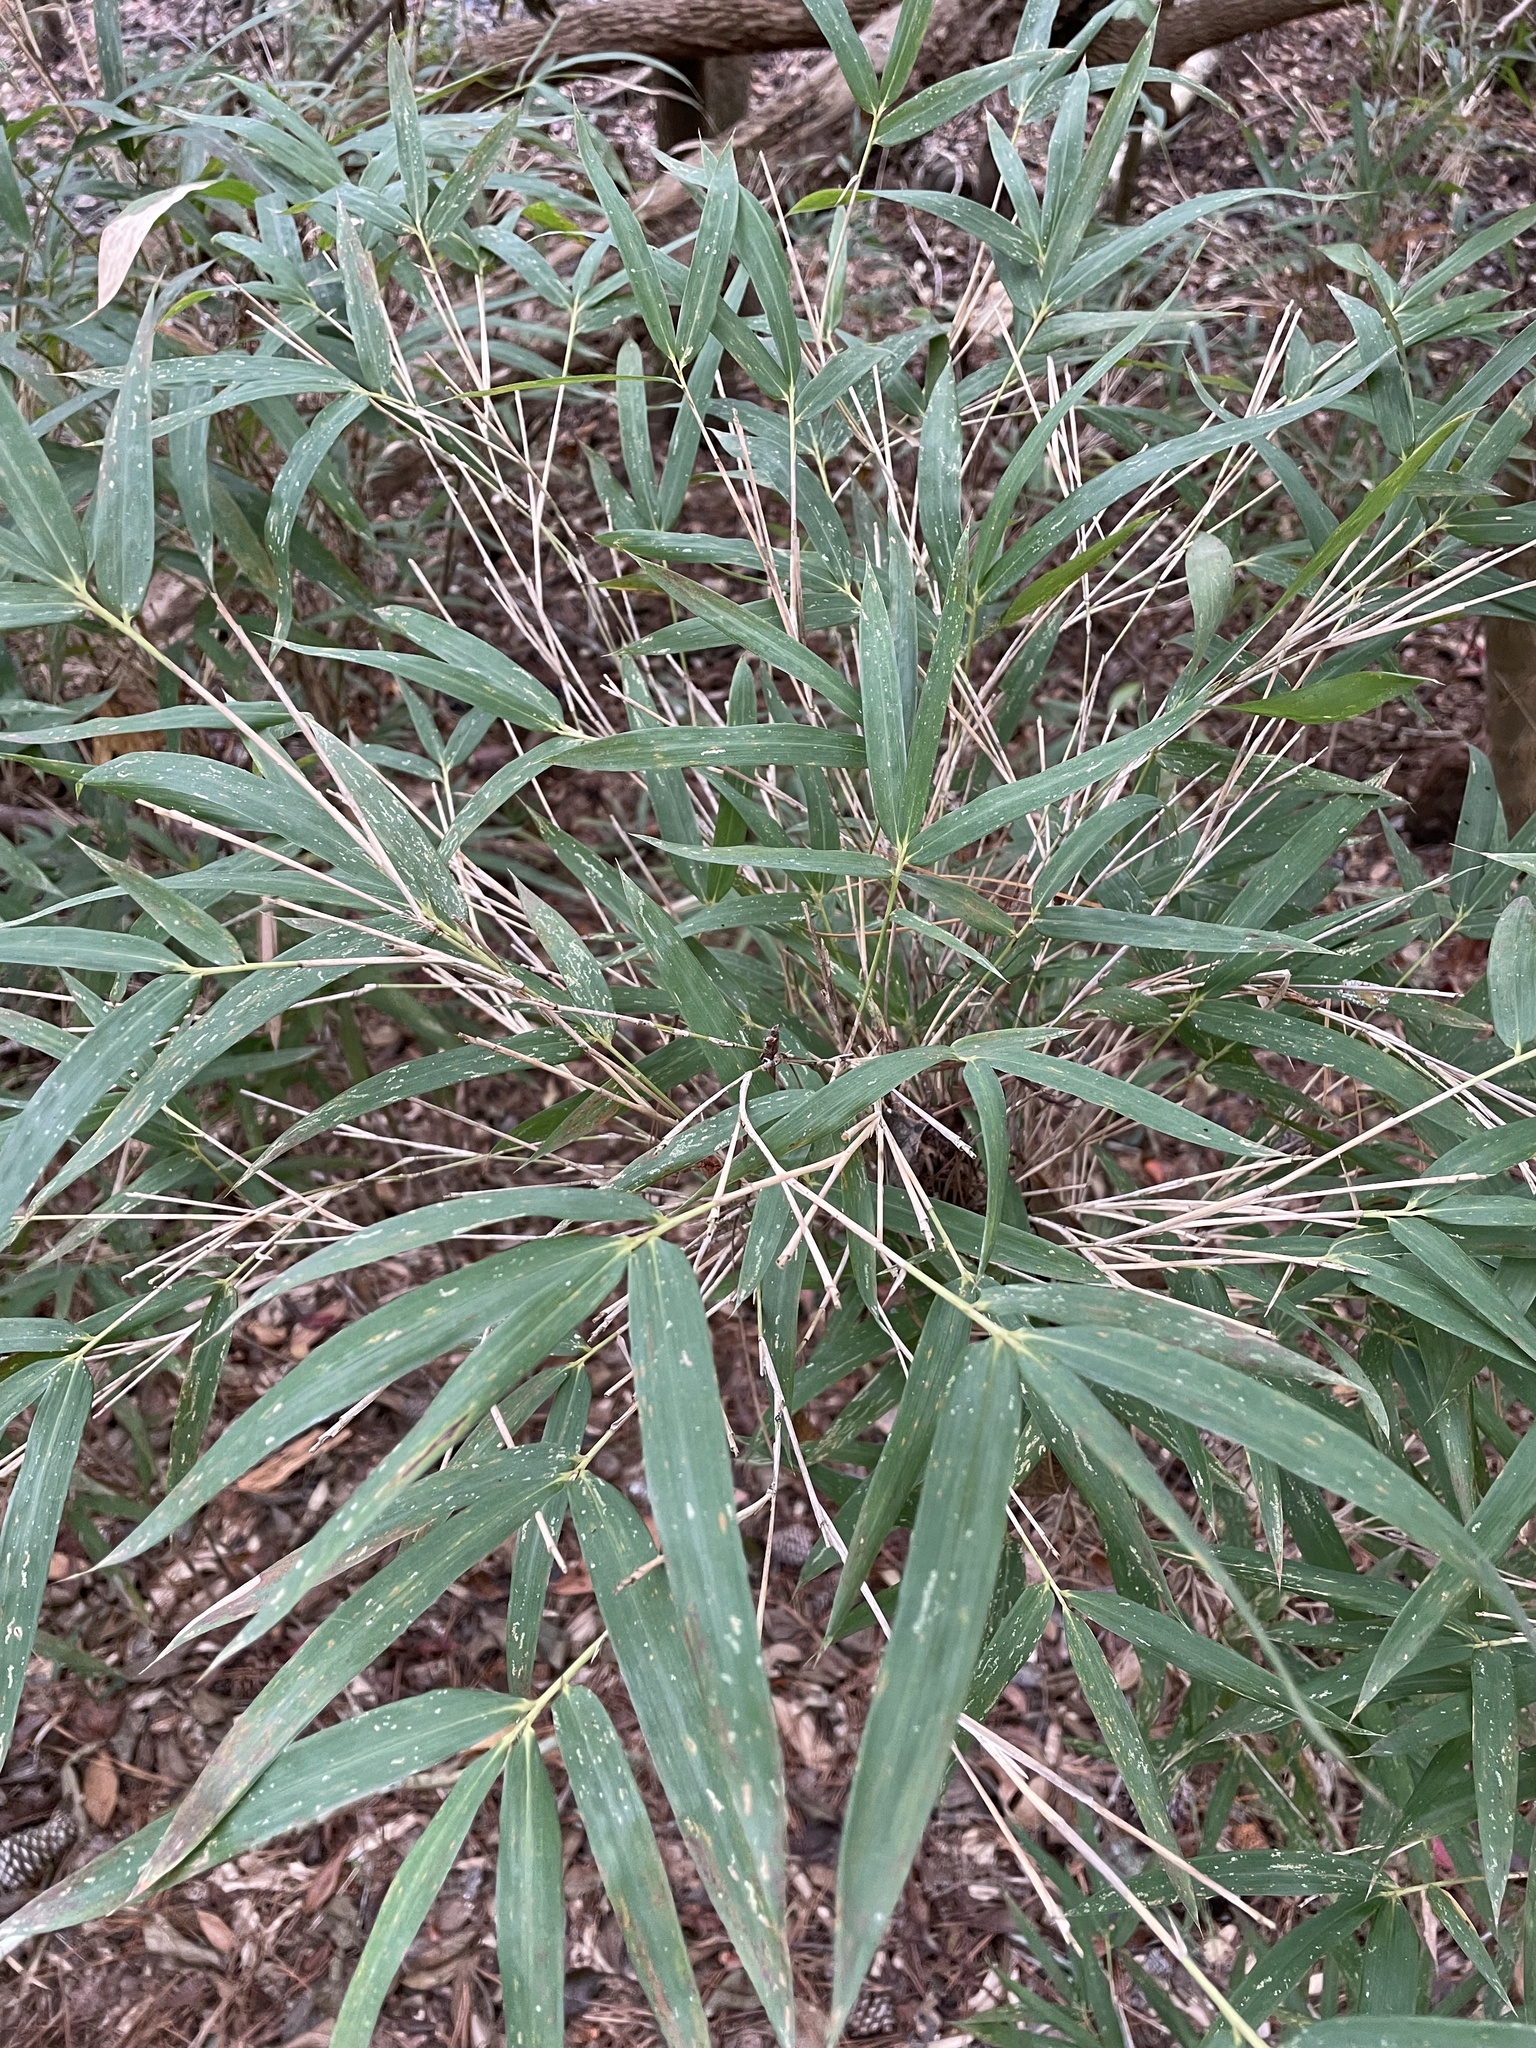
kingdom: Plantae
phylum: Tracheophyta
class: Liliopsida
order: Poales
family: Poaceae
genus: Arundinaria
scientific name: Arundinaria tecta
